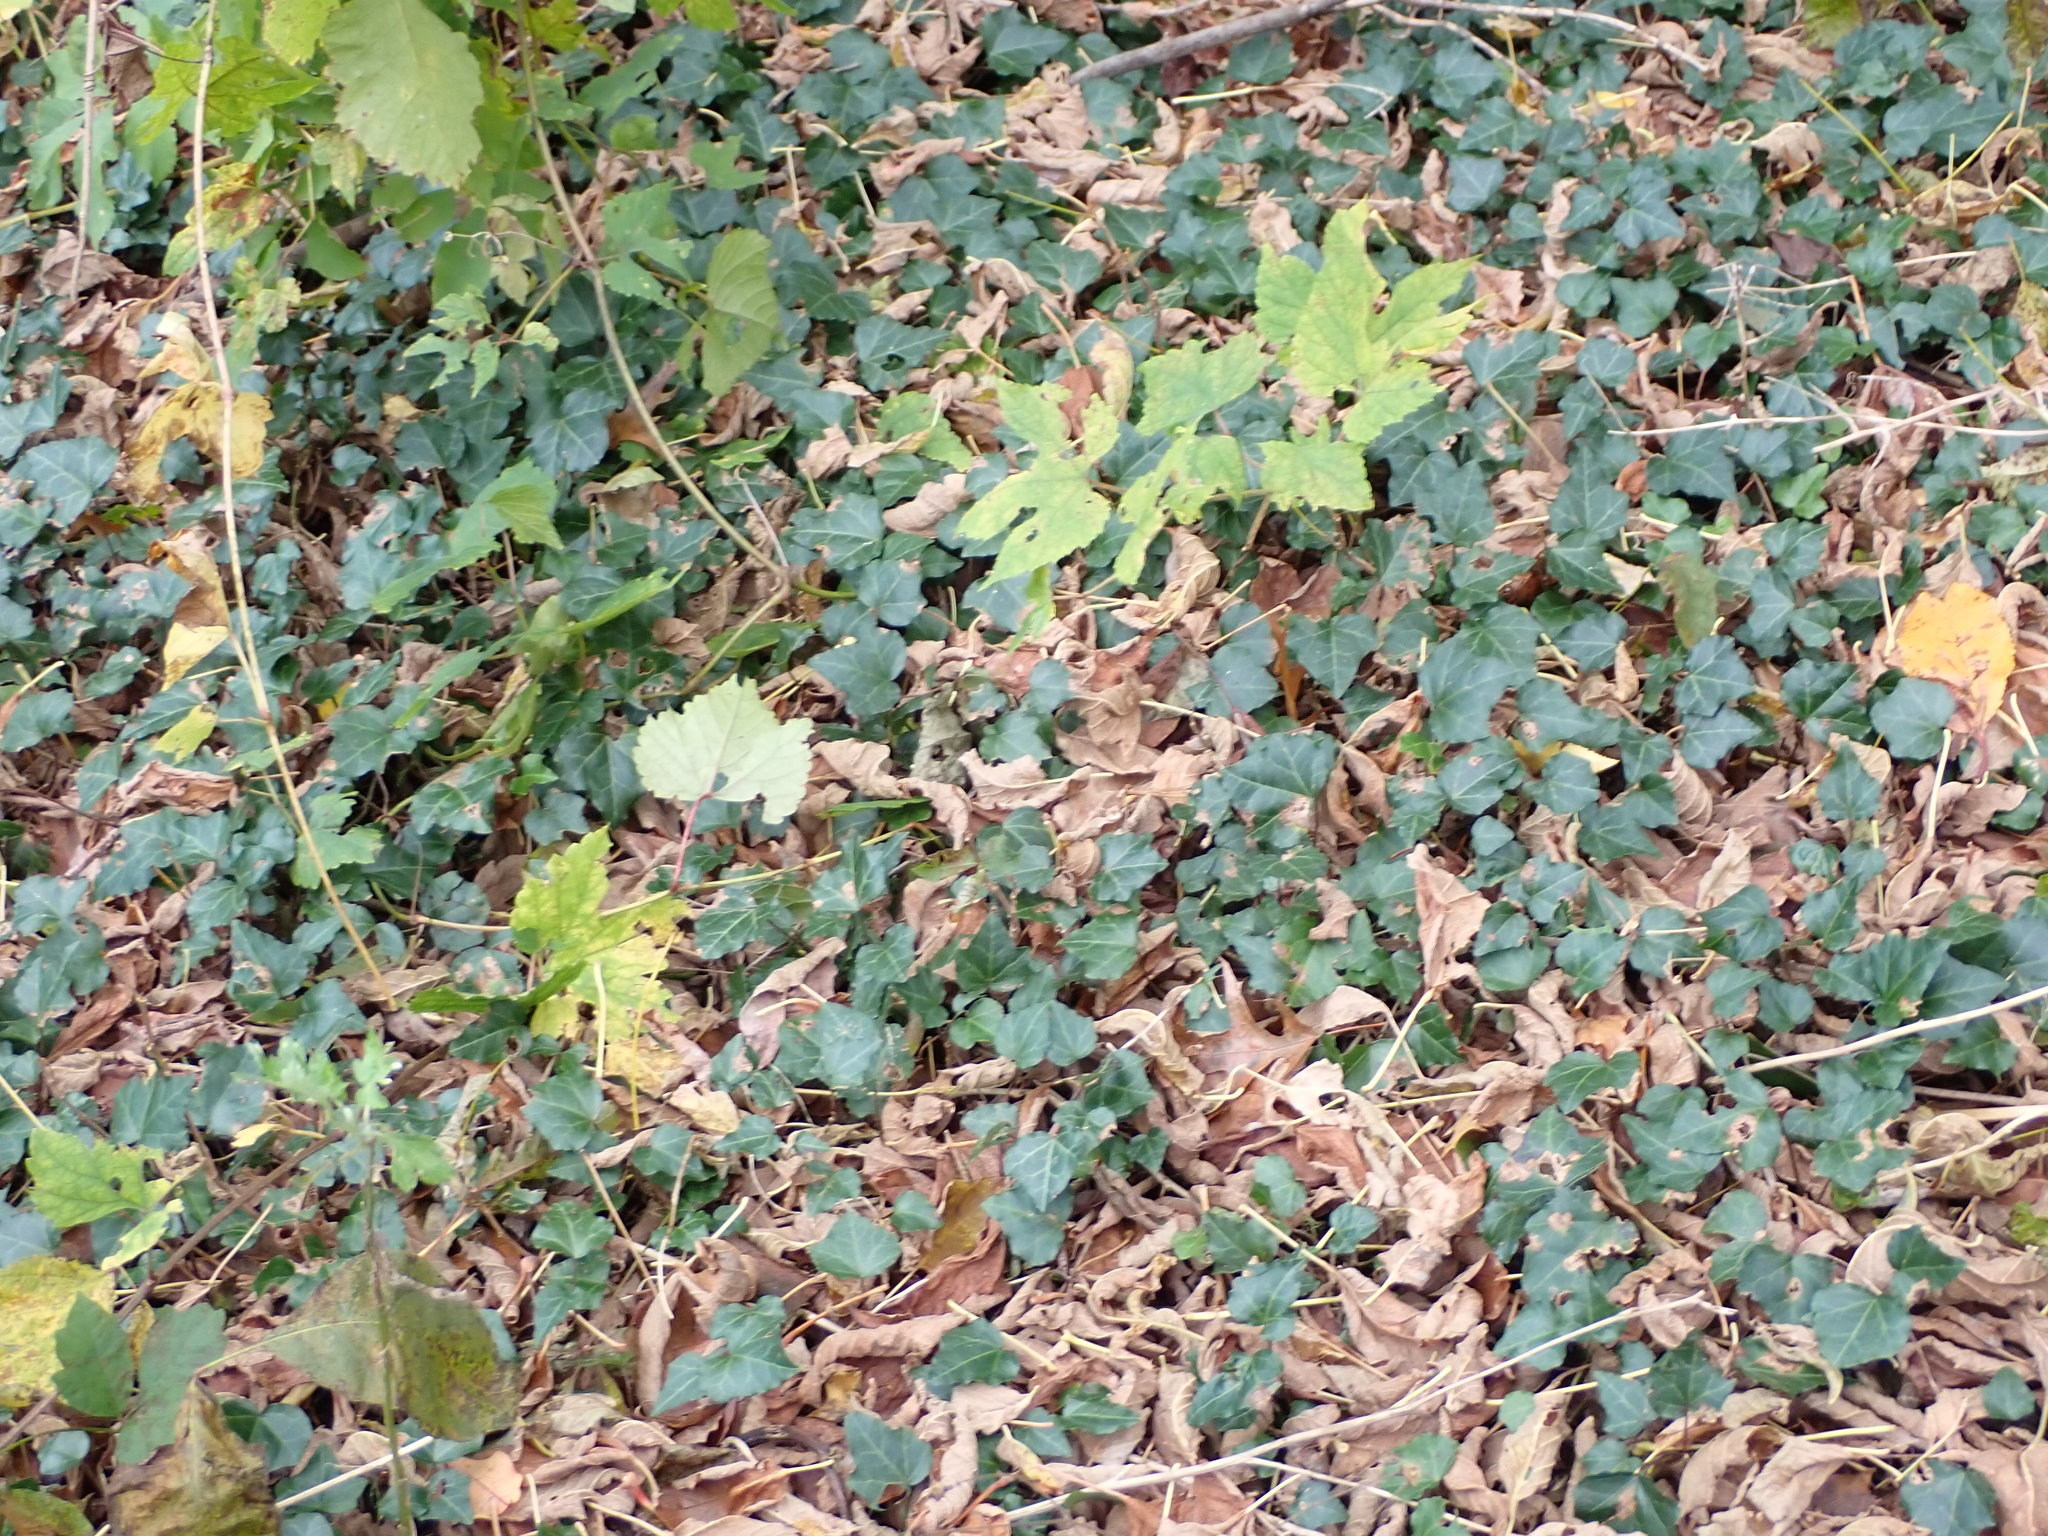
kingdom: Plantae
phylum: Tracheophyta
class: Magnoliopsida
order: Apiales
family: Araliaceae
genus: Hedera
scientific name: Hedera helix
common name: Ivy
